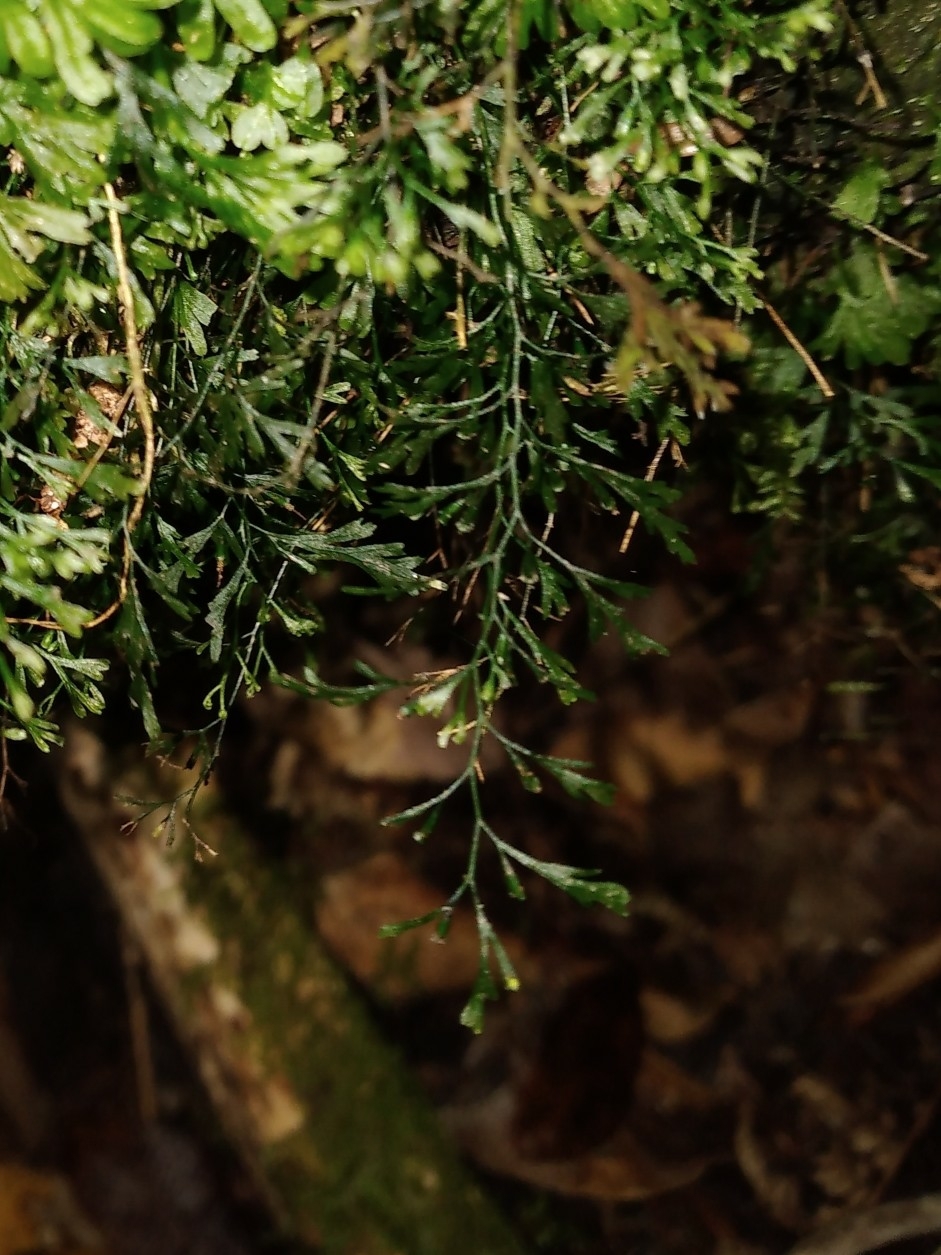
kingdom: Plantae
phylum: Tracheophyta
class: Polypodiopsida
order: Hymenophyllales
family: Hymenophyllaceae
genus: Polyphlebium
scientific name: Polyphlebium colensoi
